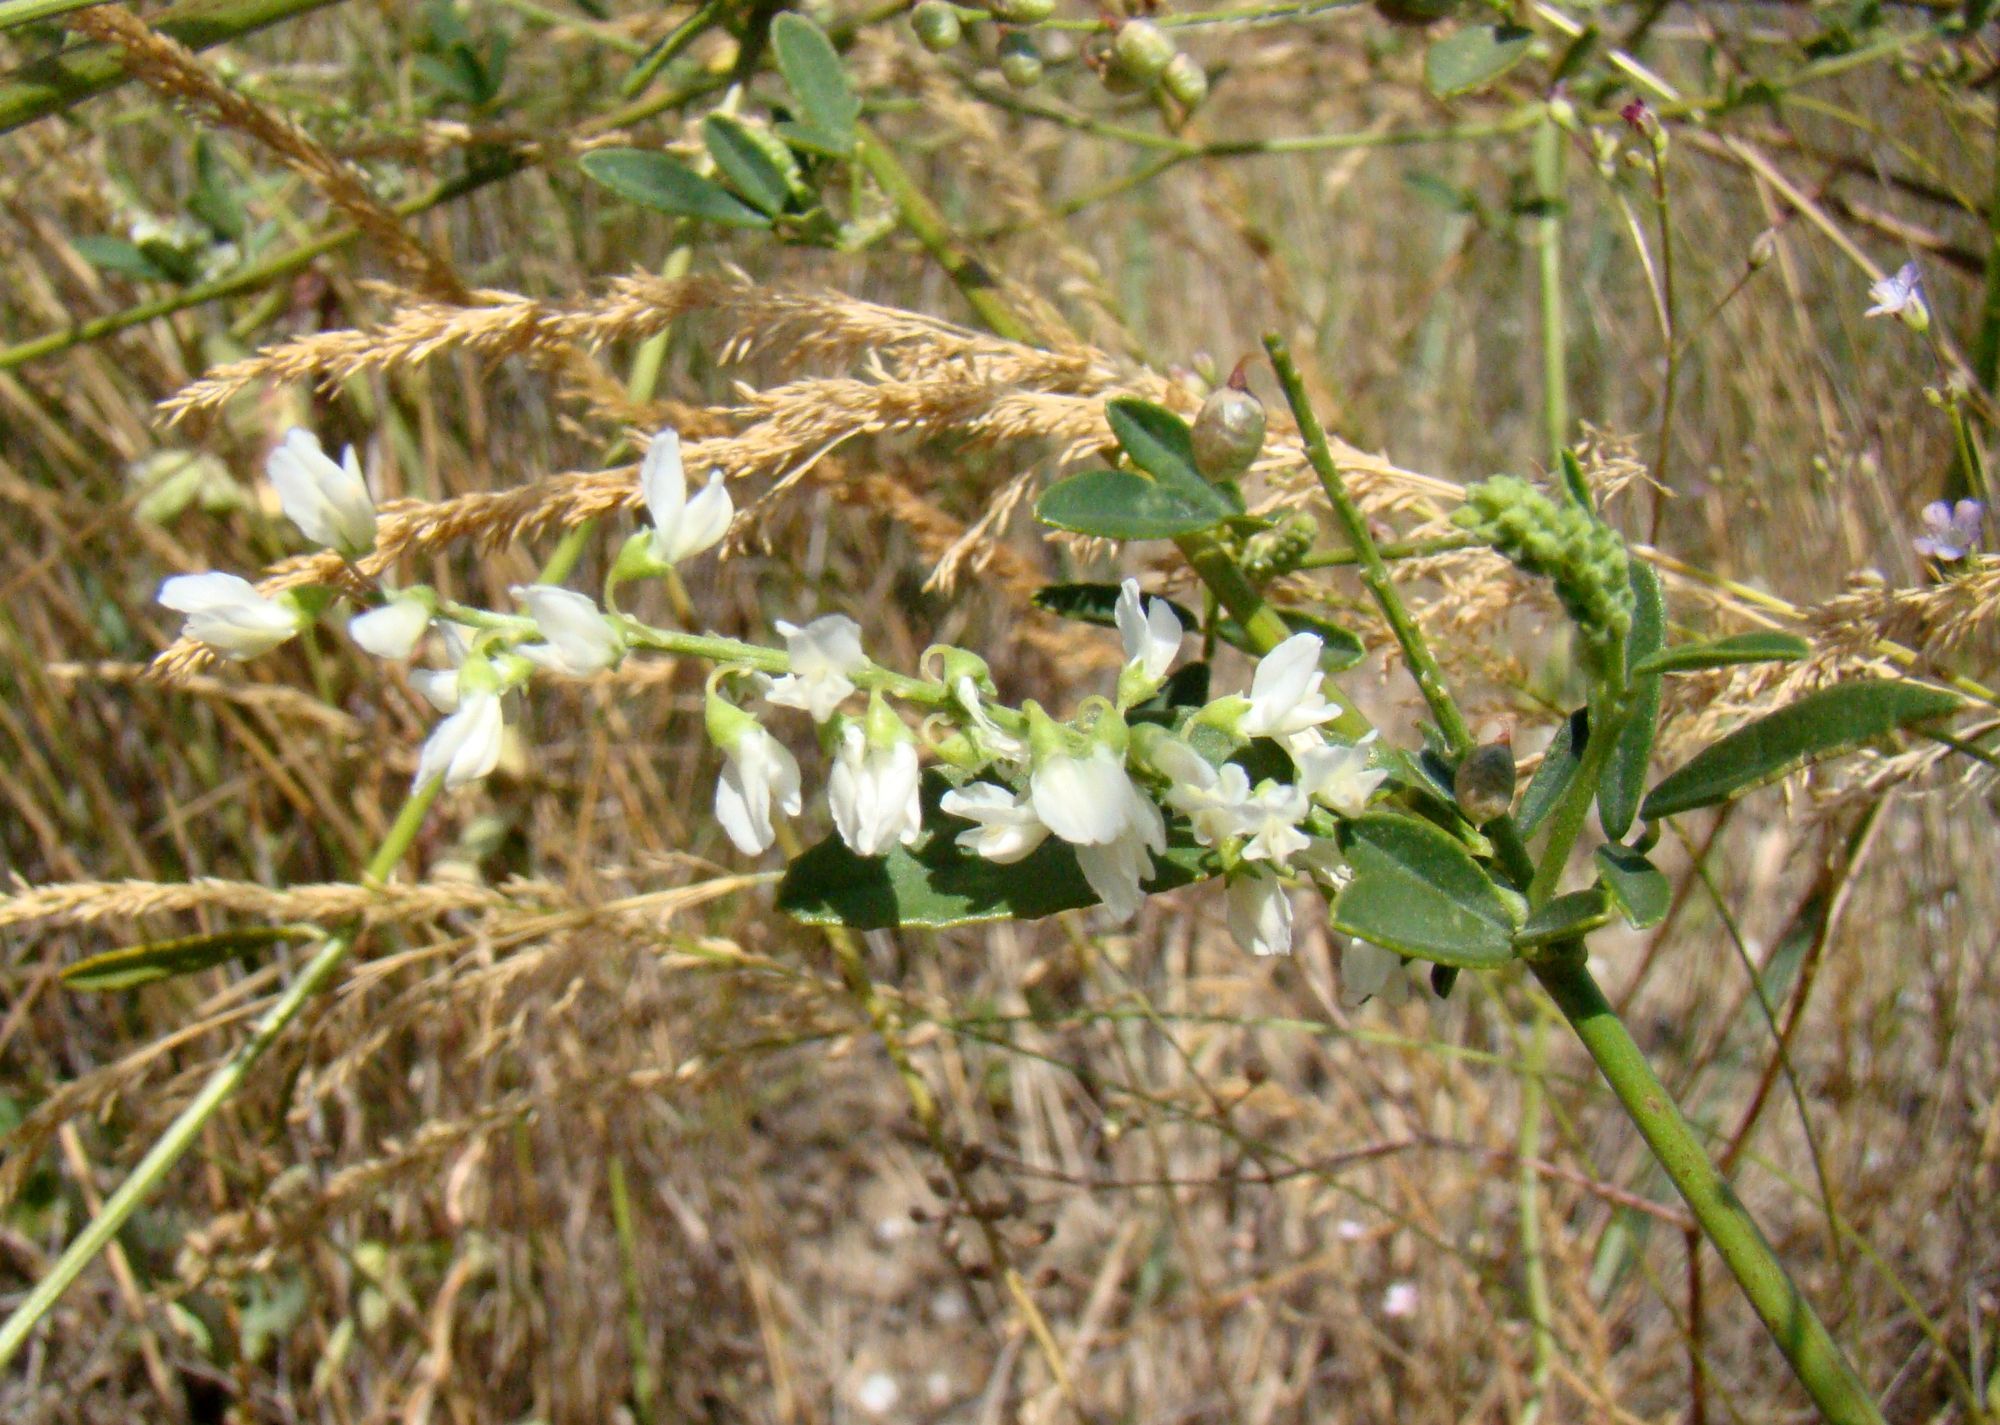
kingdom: Plantae
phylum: Tracheophyta
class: Magnoliopsida
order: Fabales
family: Fabaceae
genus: Melilotus
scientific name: Melilotus albus
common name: White melilot
